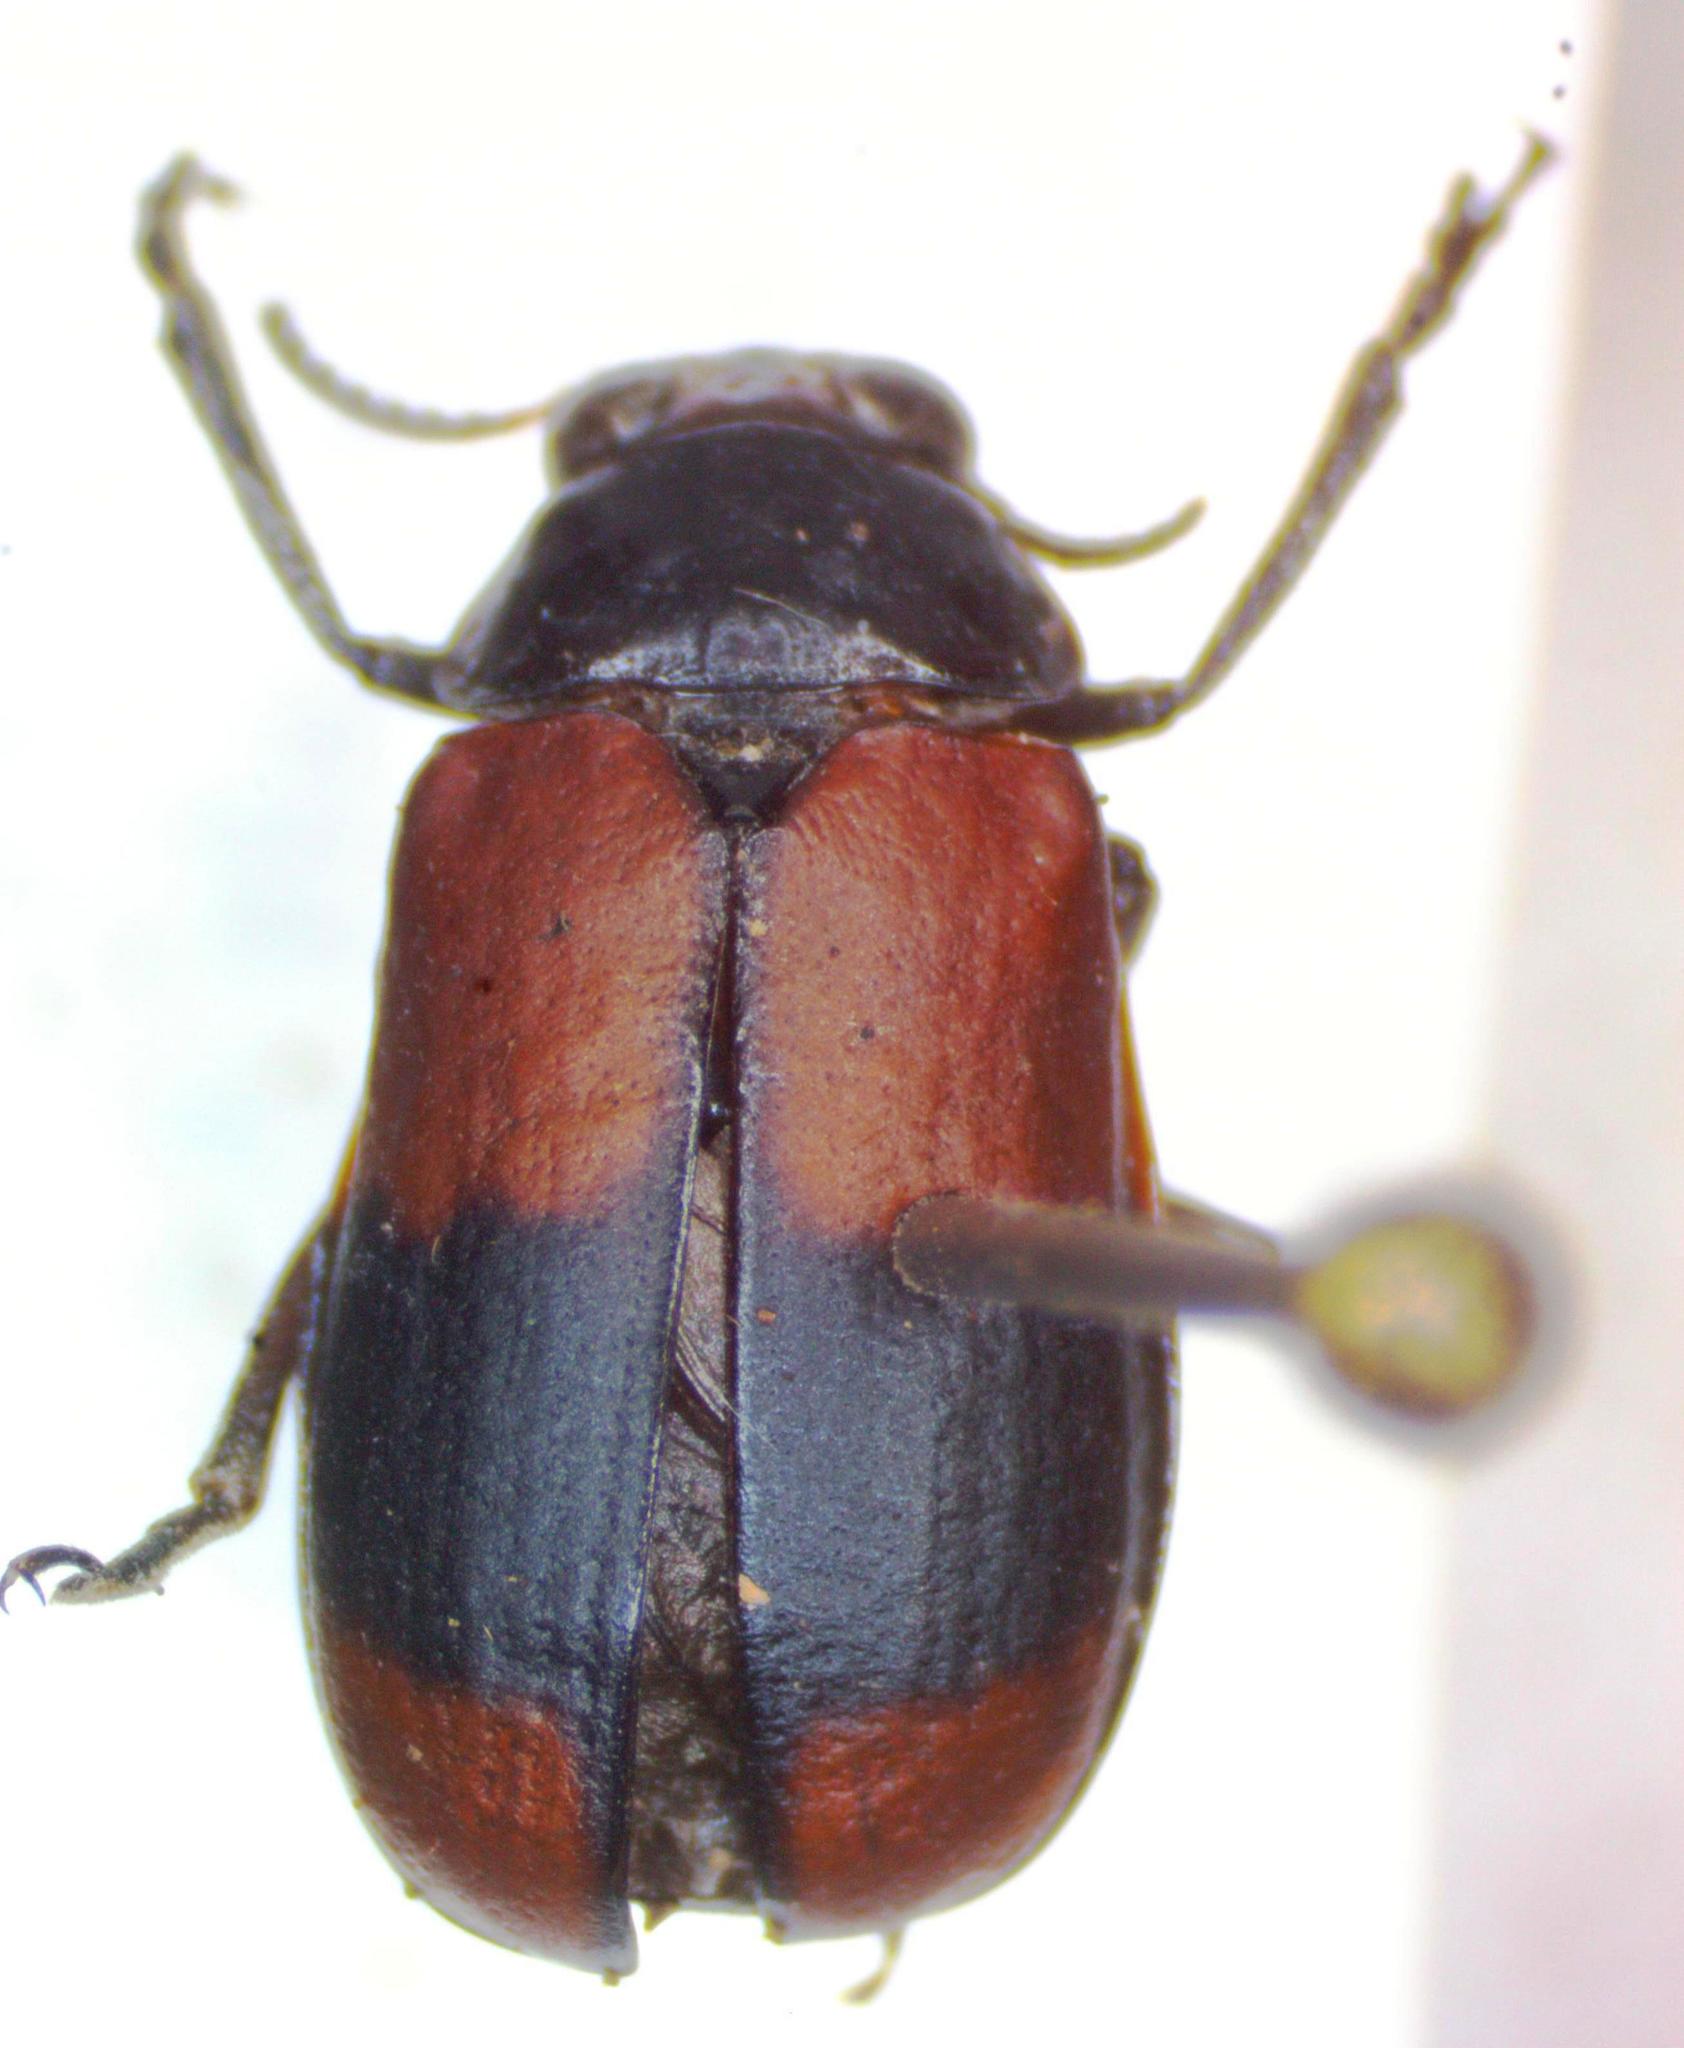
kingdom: Animalia
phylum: Arthropoda
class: Insecta
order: Coleoptera
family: Chrysomelidae
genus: Anomoea
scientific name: Anomoea rufifrons
